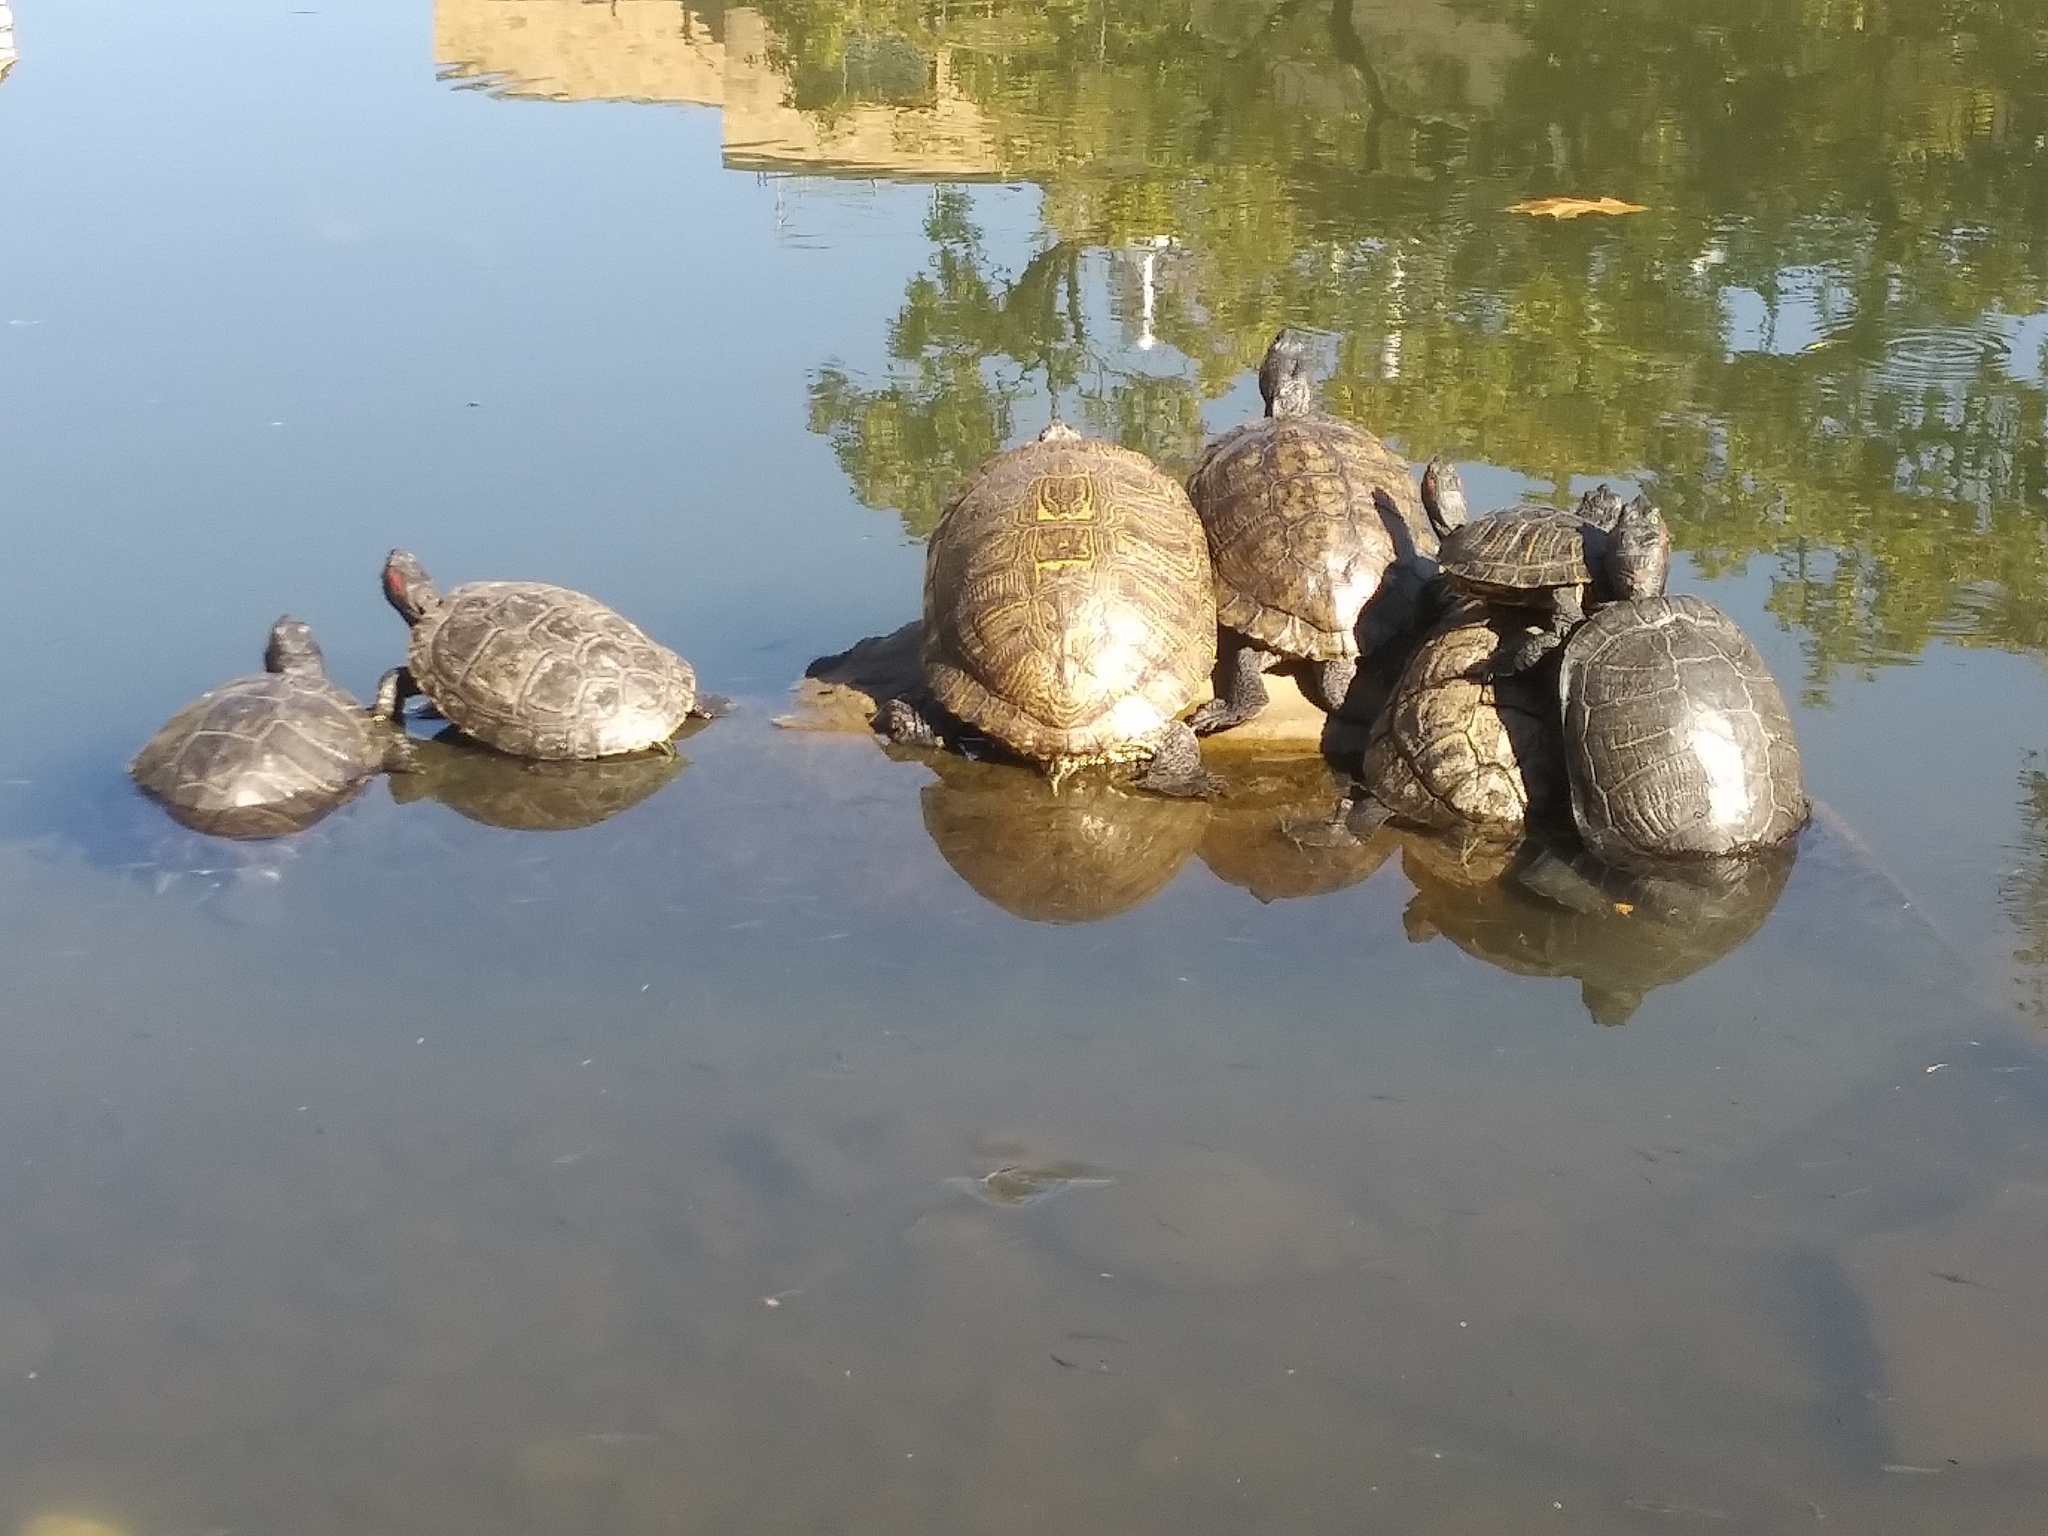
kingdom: Animalia
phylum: Chordata
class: Testudines
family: Emydidae
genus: Trachemys
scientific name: Trachemys scripta
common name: Slider
